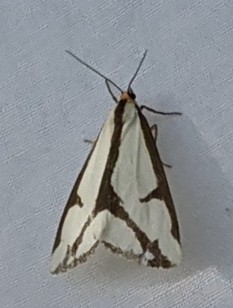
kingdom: Animalia
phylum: Arthropoda
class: Insecta
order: Lepidoptera
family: Erebidae
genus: Haploa
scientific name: Haploa lecontei
